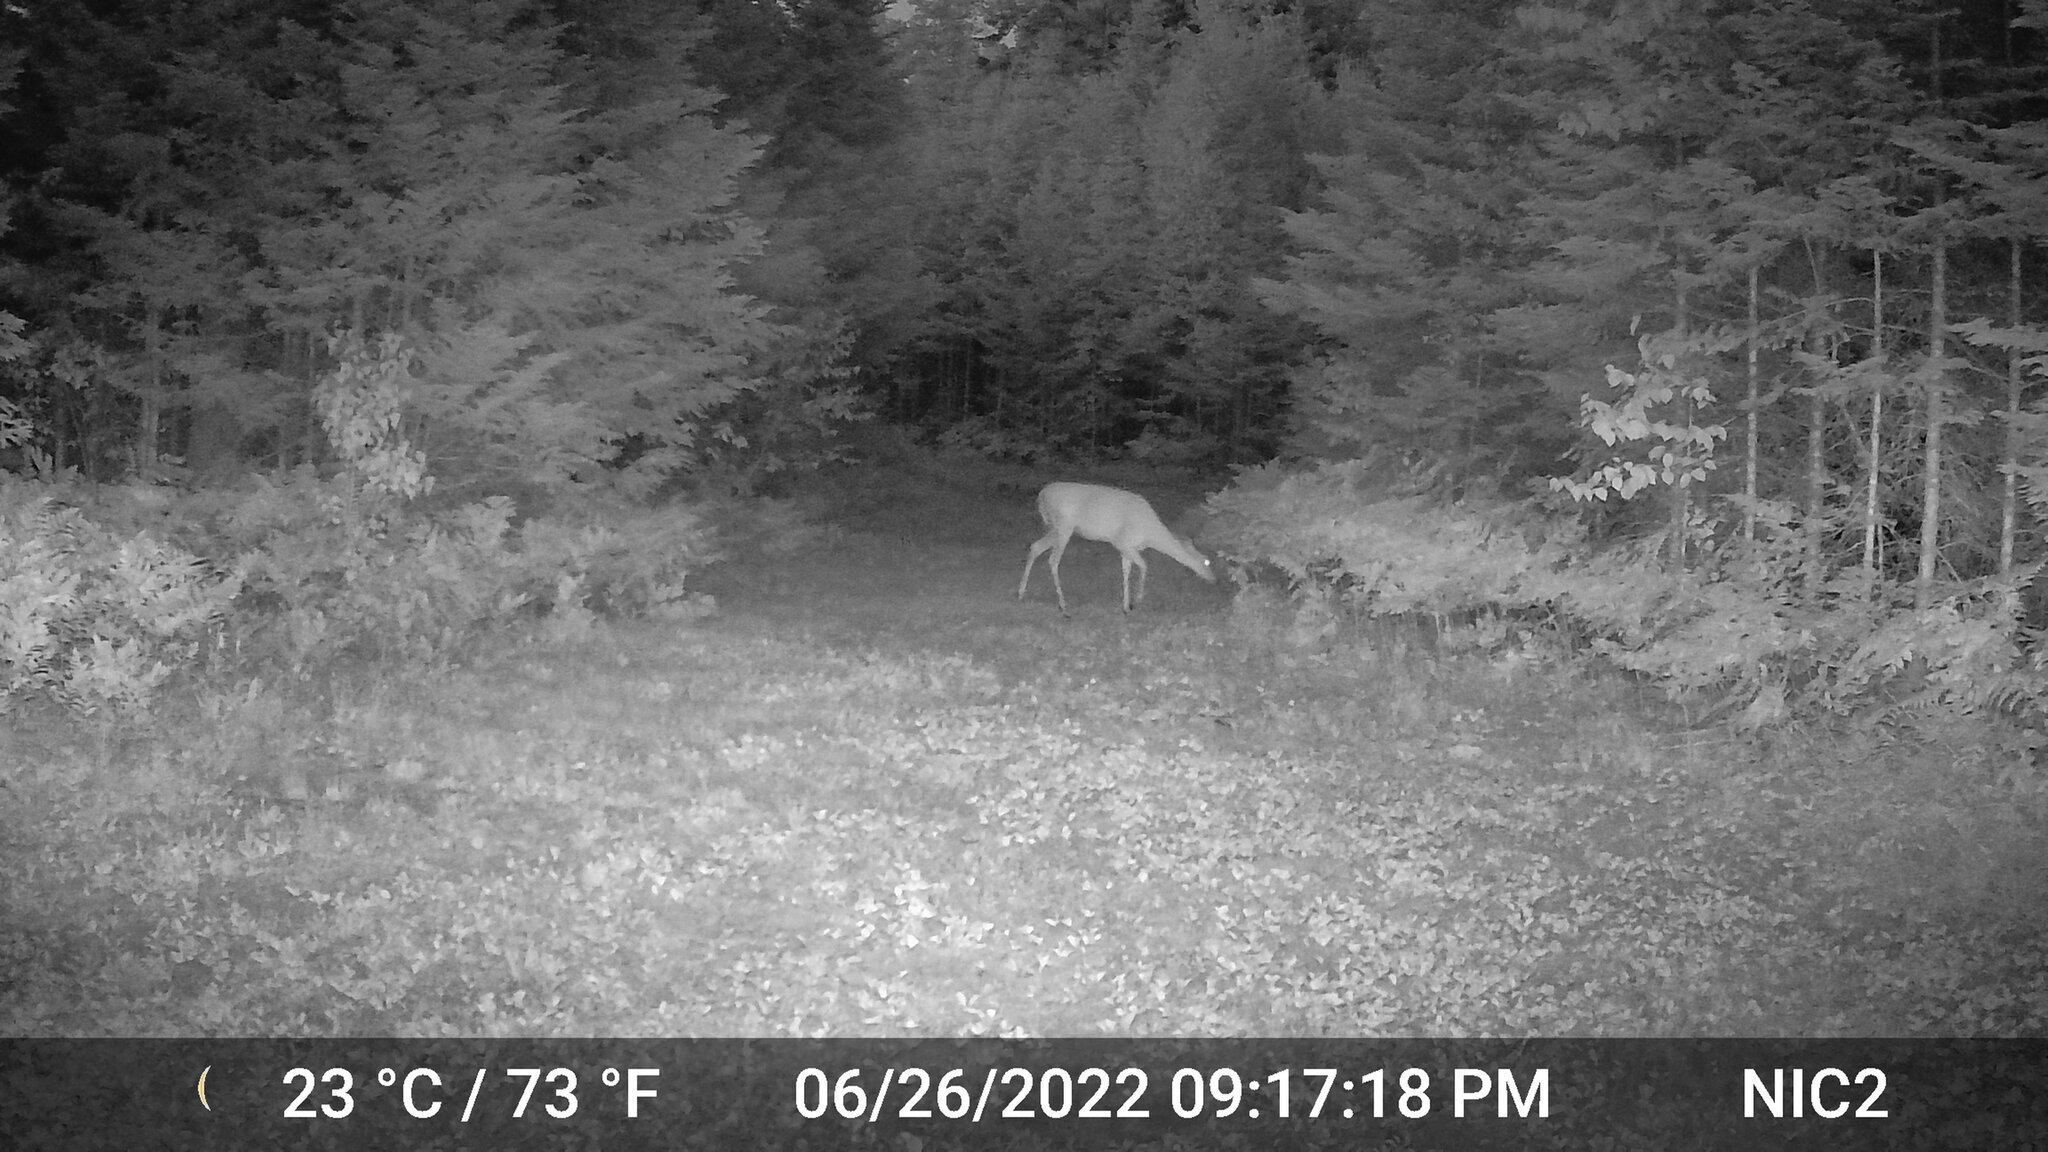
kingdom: Animalia
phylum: Chordata
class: Mammalia
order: Artiodactyla
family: Cervidae
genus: Odocoileus
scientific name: Odocoileus virginianus
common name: White-tailed deer
